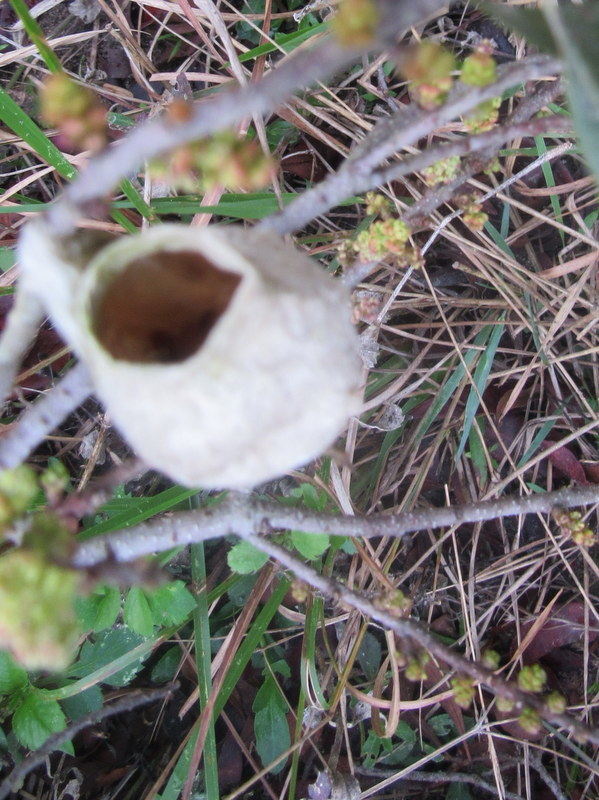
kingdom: Animalia
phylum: Arthropoda
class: Insecta
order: Lepidoptera
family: Saturniidae
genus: Antheraea
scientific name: Antheraea polyphemus
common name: Polyphemus moth
